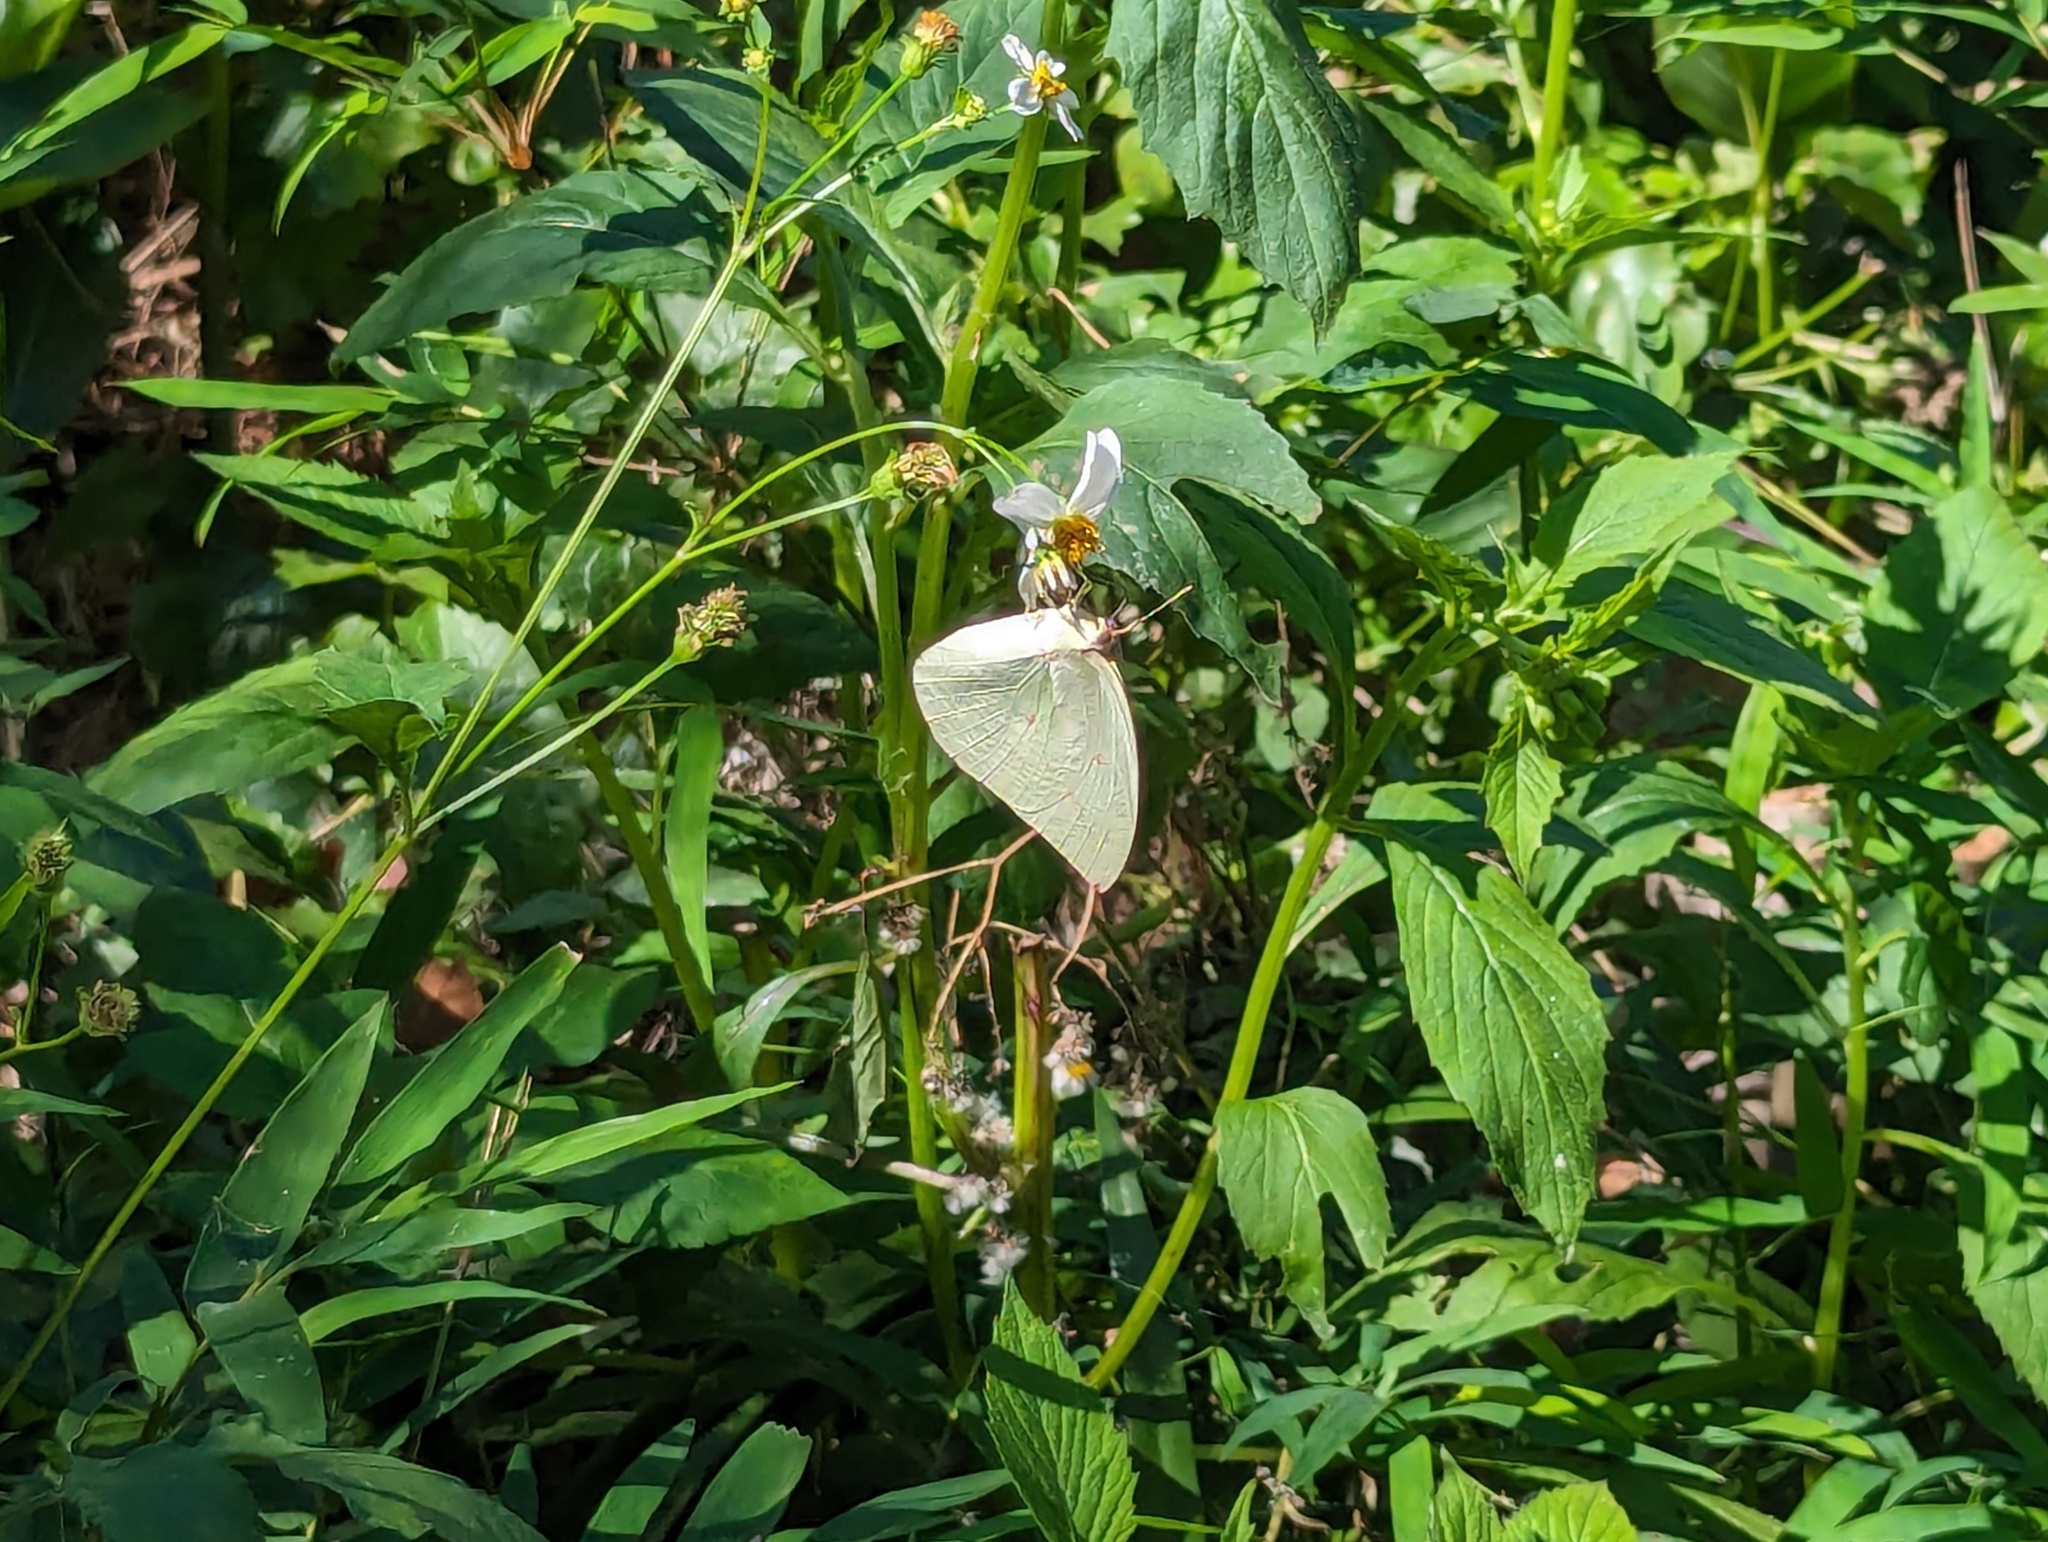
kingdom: Animalia
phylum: Arthropoda
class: Insecta
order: Lepidoptera
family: Pieridae
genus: Catopsilia
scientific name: Catopsilia pomona
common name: Common emigrant
